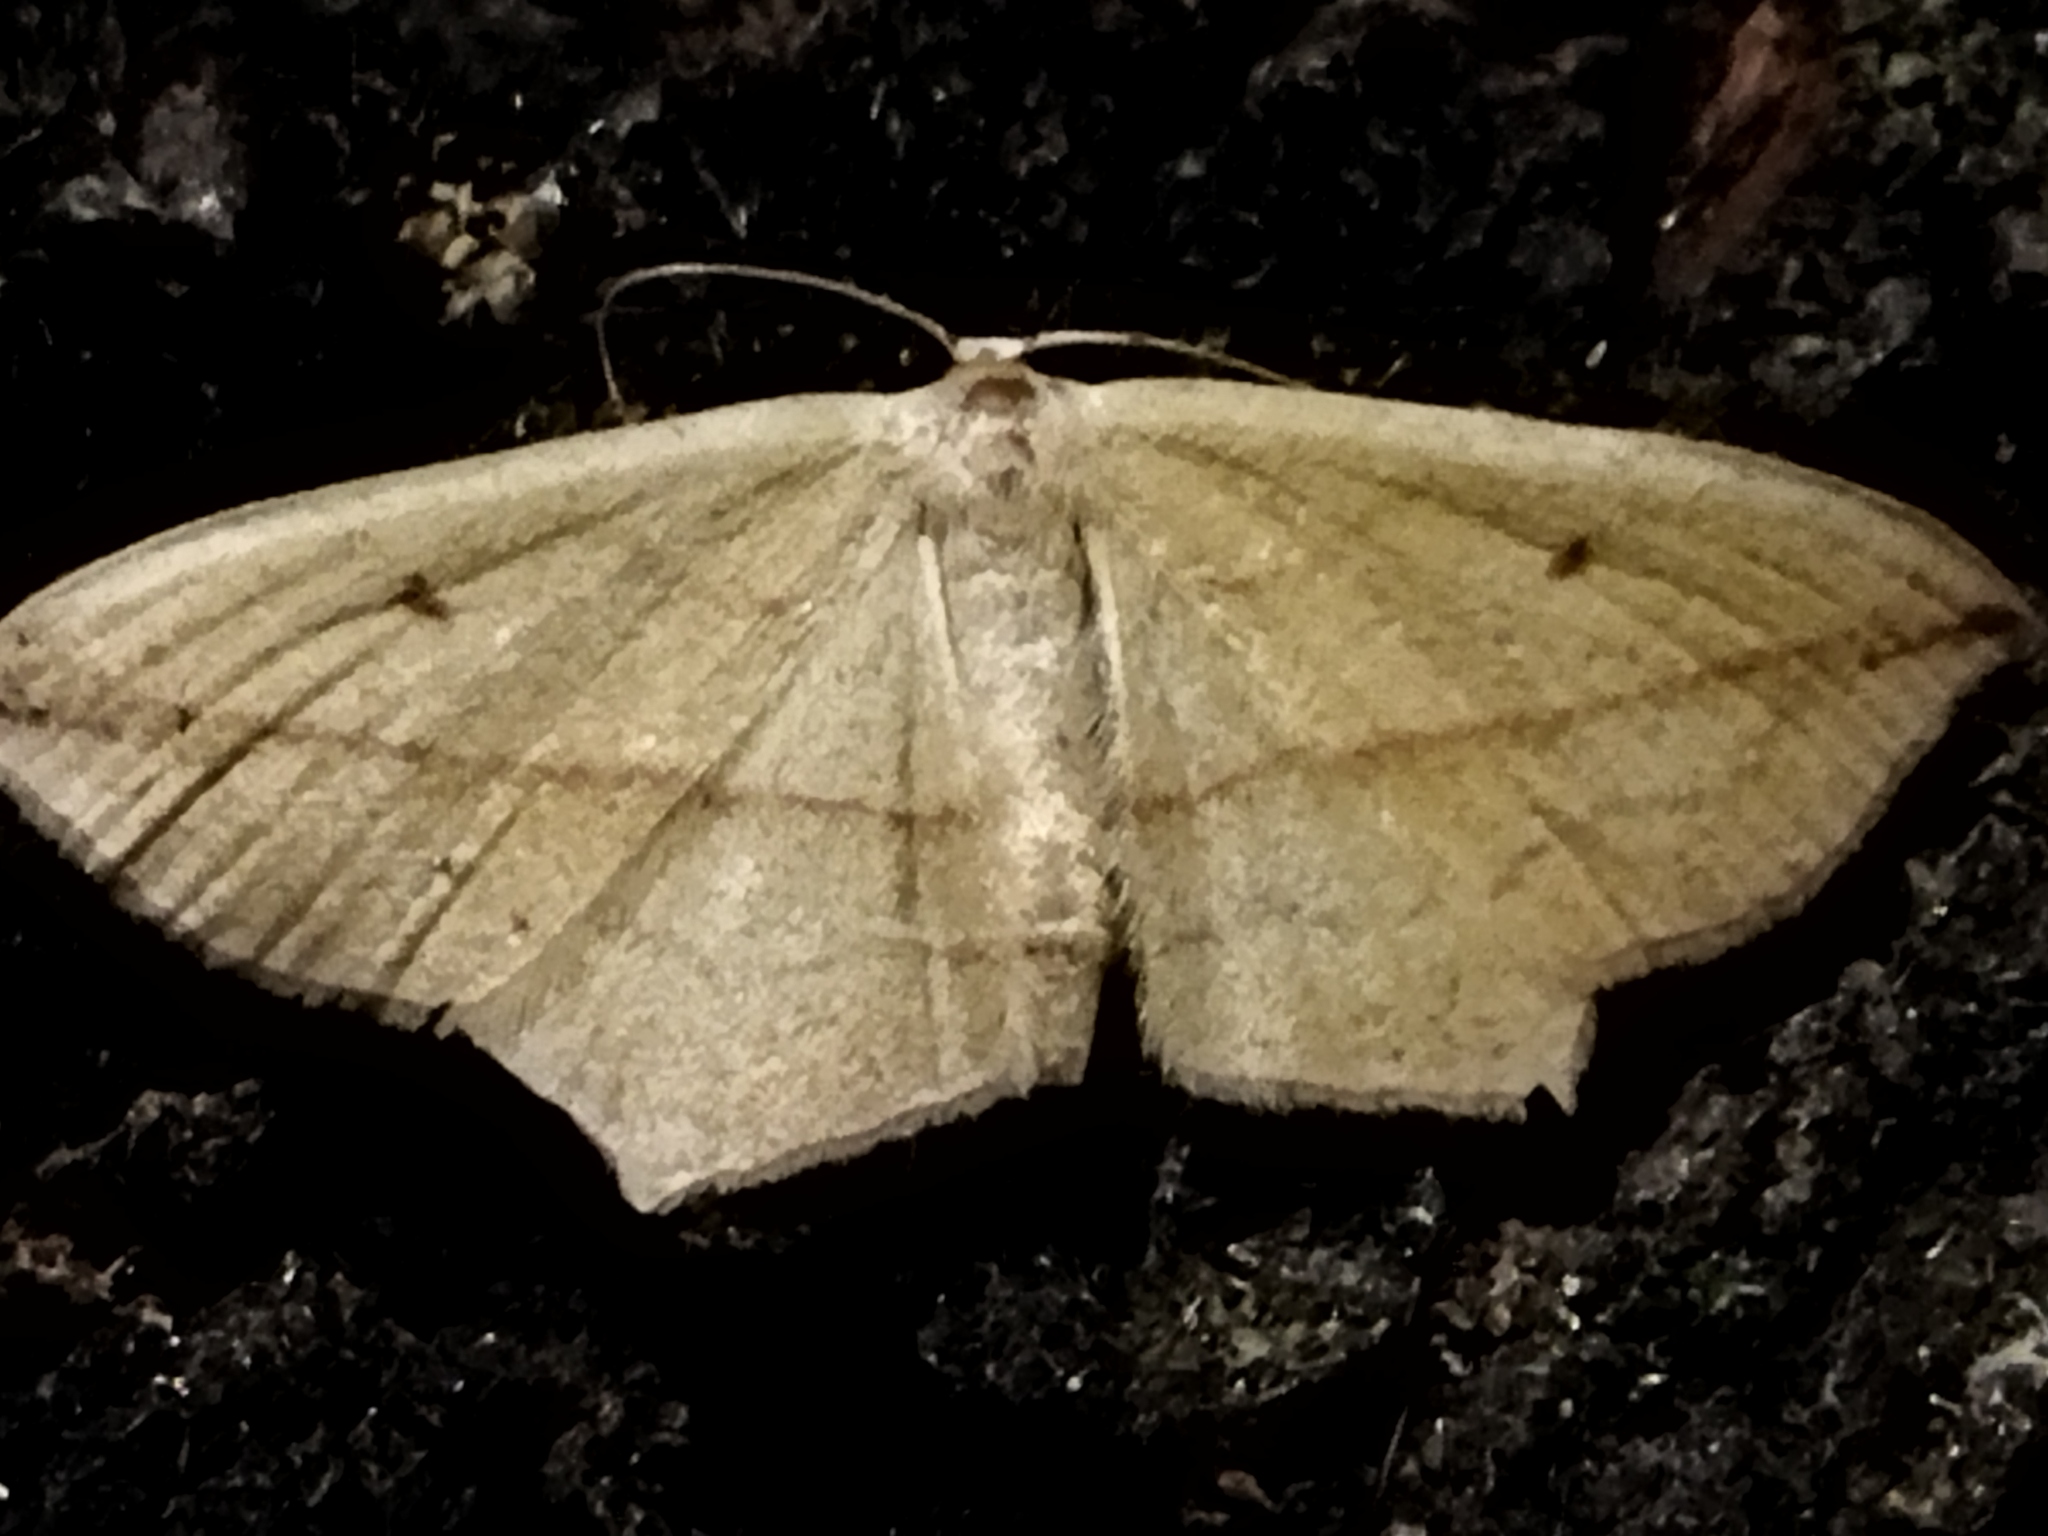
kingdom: Animalia
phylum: Arthropoda
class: Insecta
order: Lepidoptera
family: Geometridae
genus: Timandra
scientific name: Timandra comae
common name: Blood-vein
